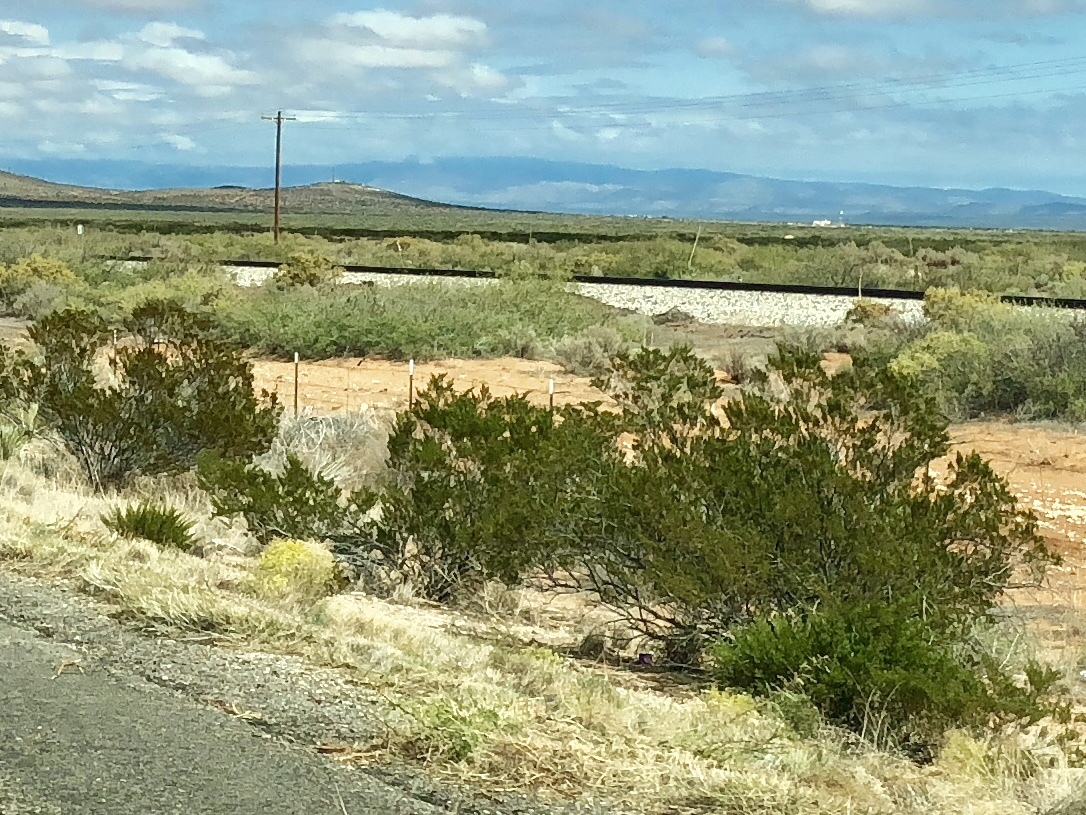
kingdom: Plantae
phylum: Tracheophyta
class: Magnoliopsida
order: Zygophyllales
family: Zygophyllaceae
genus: Larrea
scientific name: Larrea tridentata
